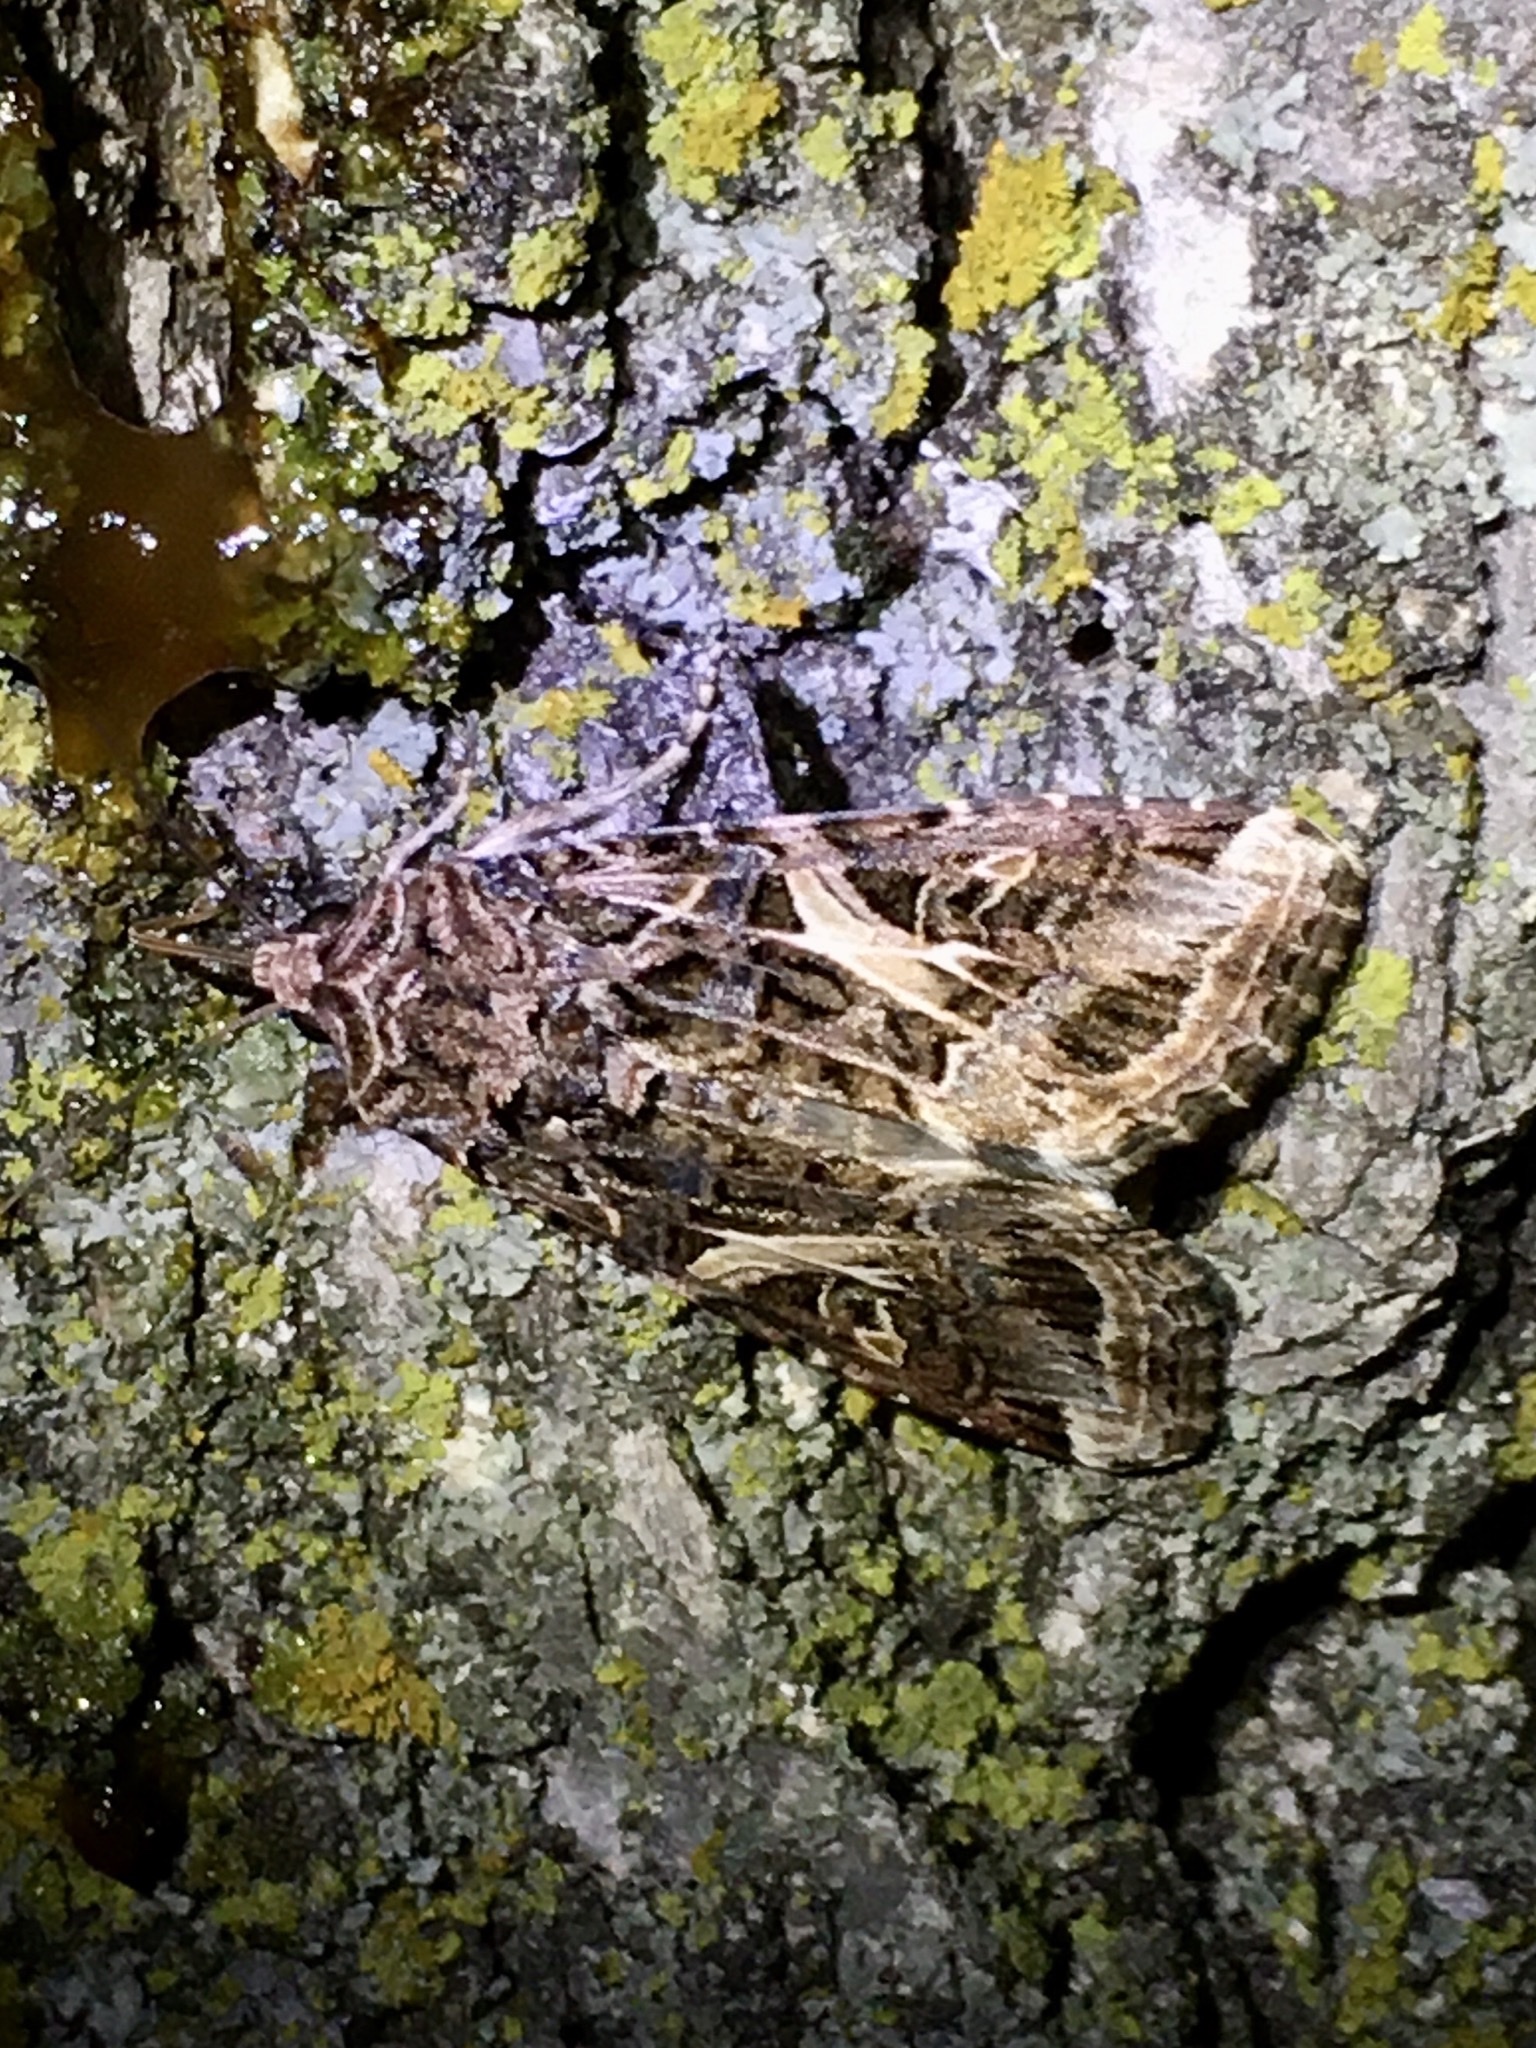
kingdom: Animalia
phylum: Arthropoda
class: Insecta
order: Lepidoptera
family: Noctuidae
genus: Spodoptera
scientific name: Spodoptera ornithogalli
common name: Yellow-striped armyworm
